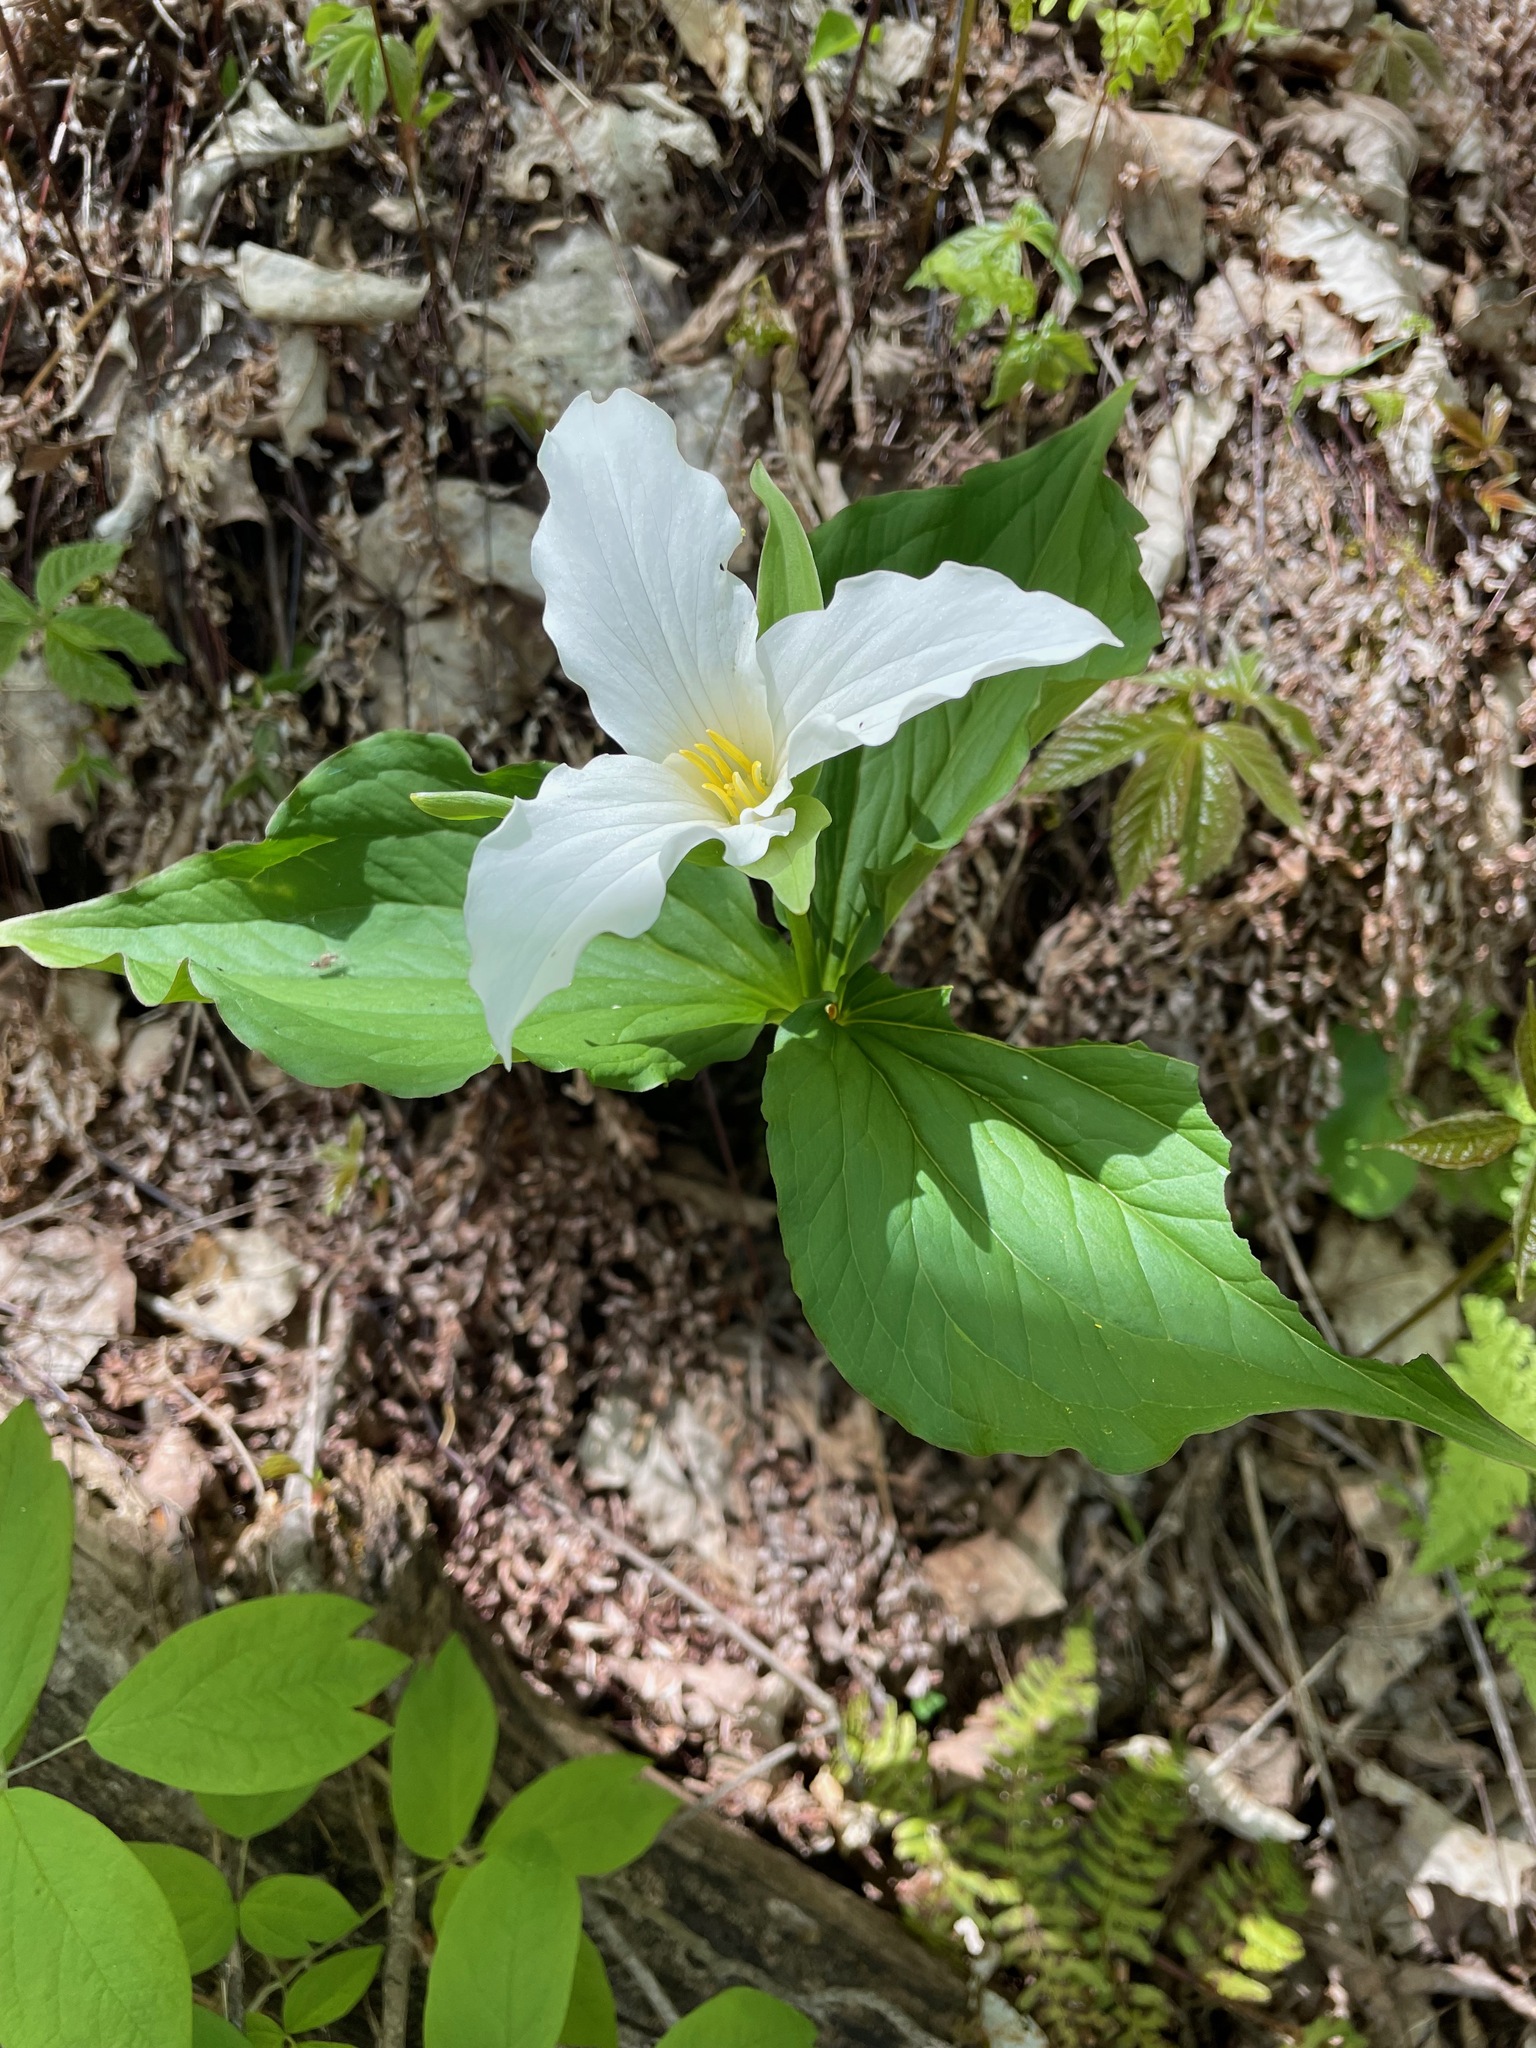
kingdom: Plantae
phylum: Tracheophyta
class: Liliopsida
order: Liliales
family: Melanthiaceae
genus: Trillium
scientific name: Trillium grandiflorum
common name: Great white trillium
